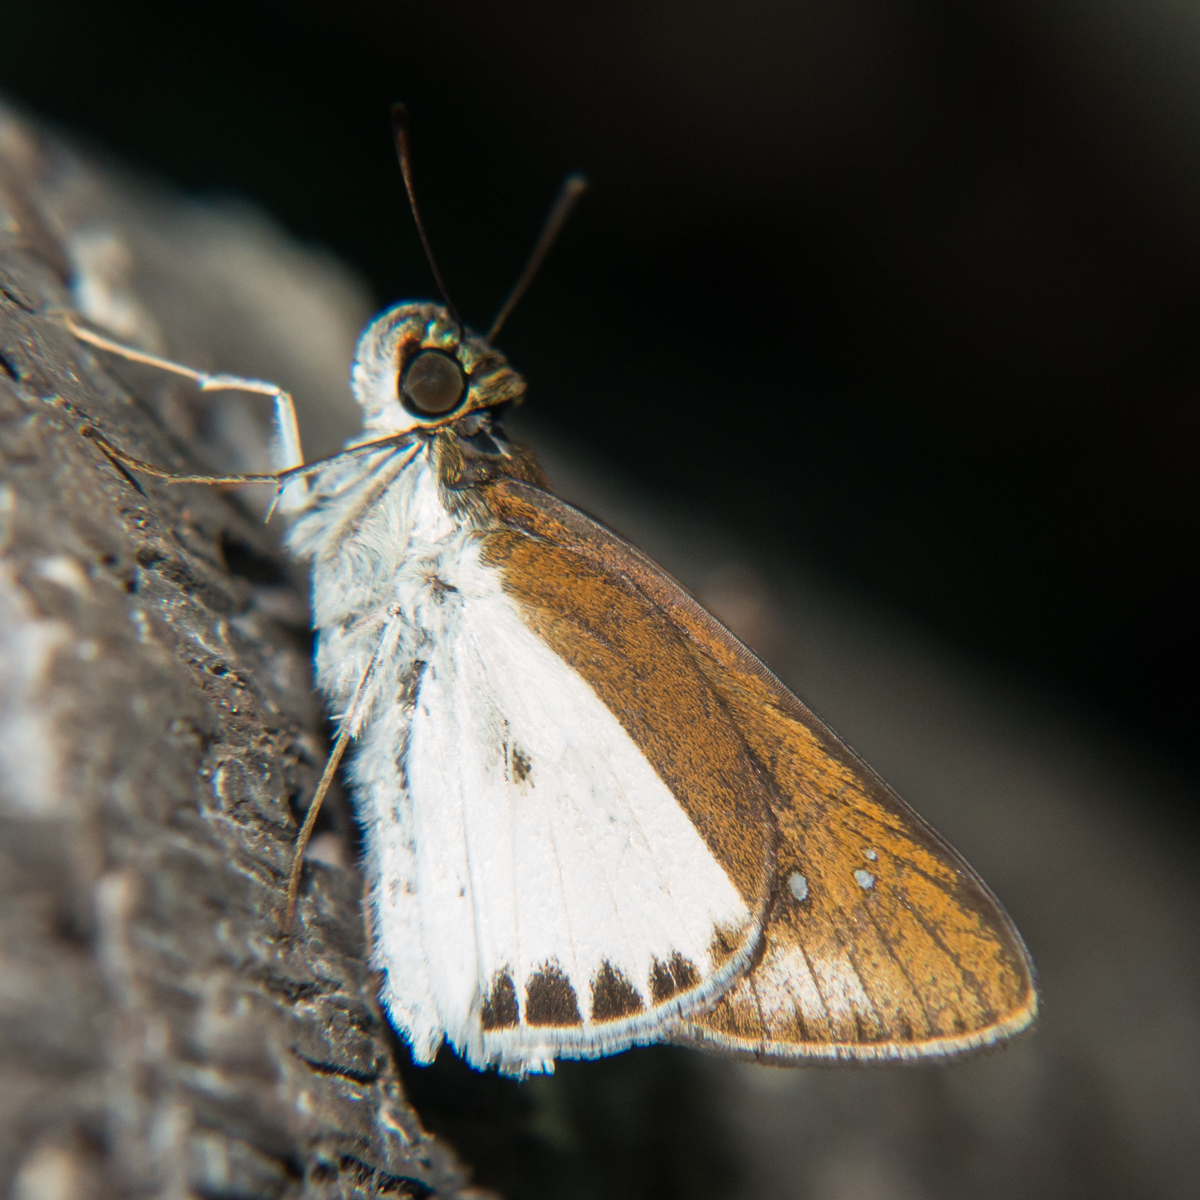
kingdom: Animalia
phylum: Arthropoda
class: Insecta
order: Lepidoptera
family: Hesperiidae
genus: Iton
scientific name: Iton semamora
